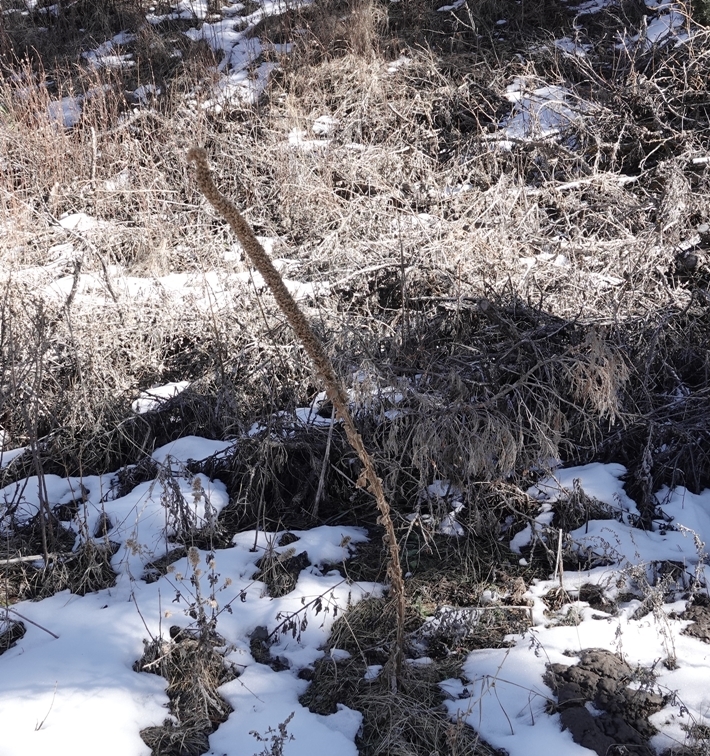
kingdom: Plantae
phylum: Tracheophyta
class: Magnoliopsida
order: Lamiales
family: Scrophulariaceae
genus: Verbascum
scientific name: Verbascum thapsus
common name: Common mullein
